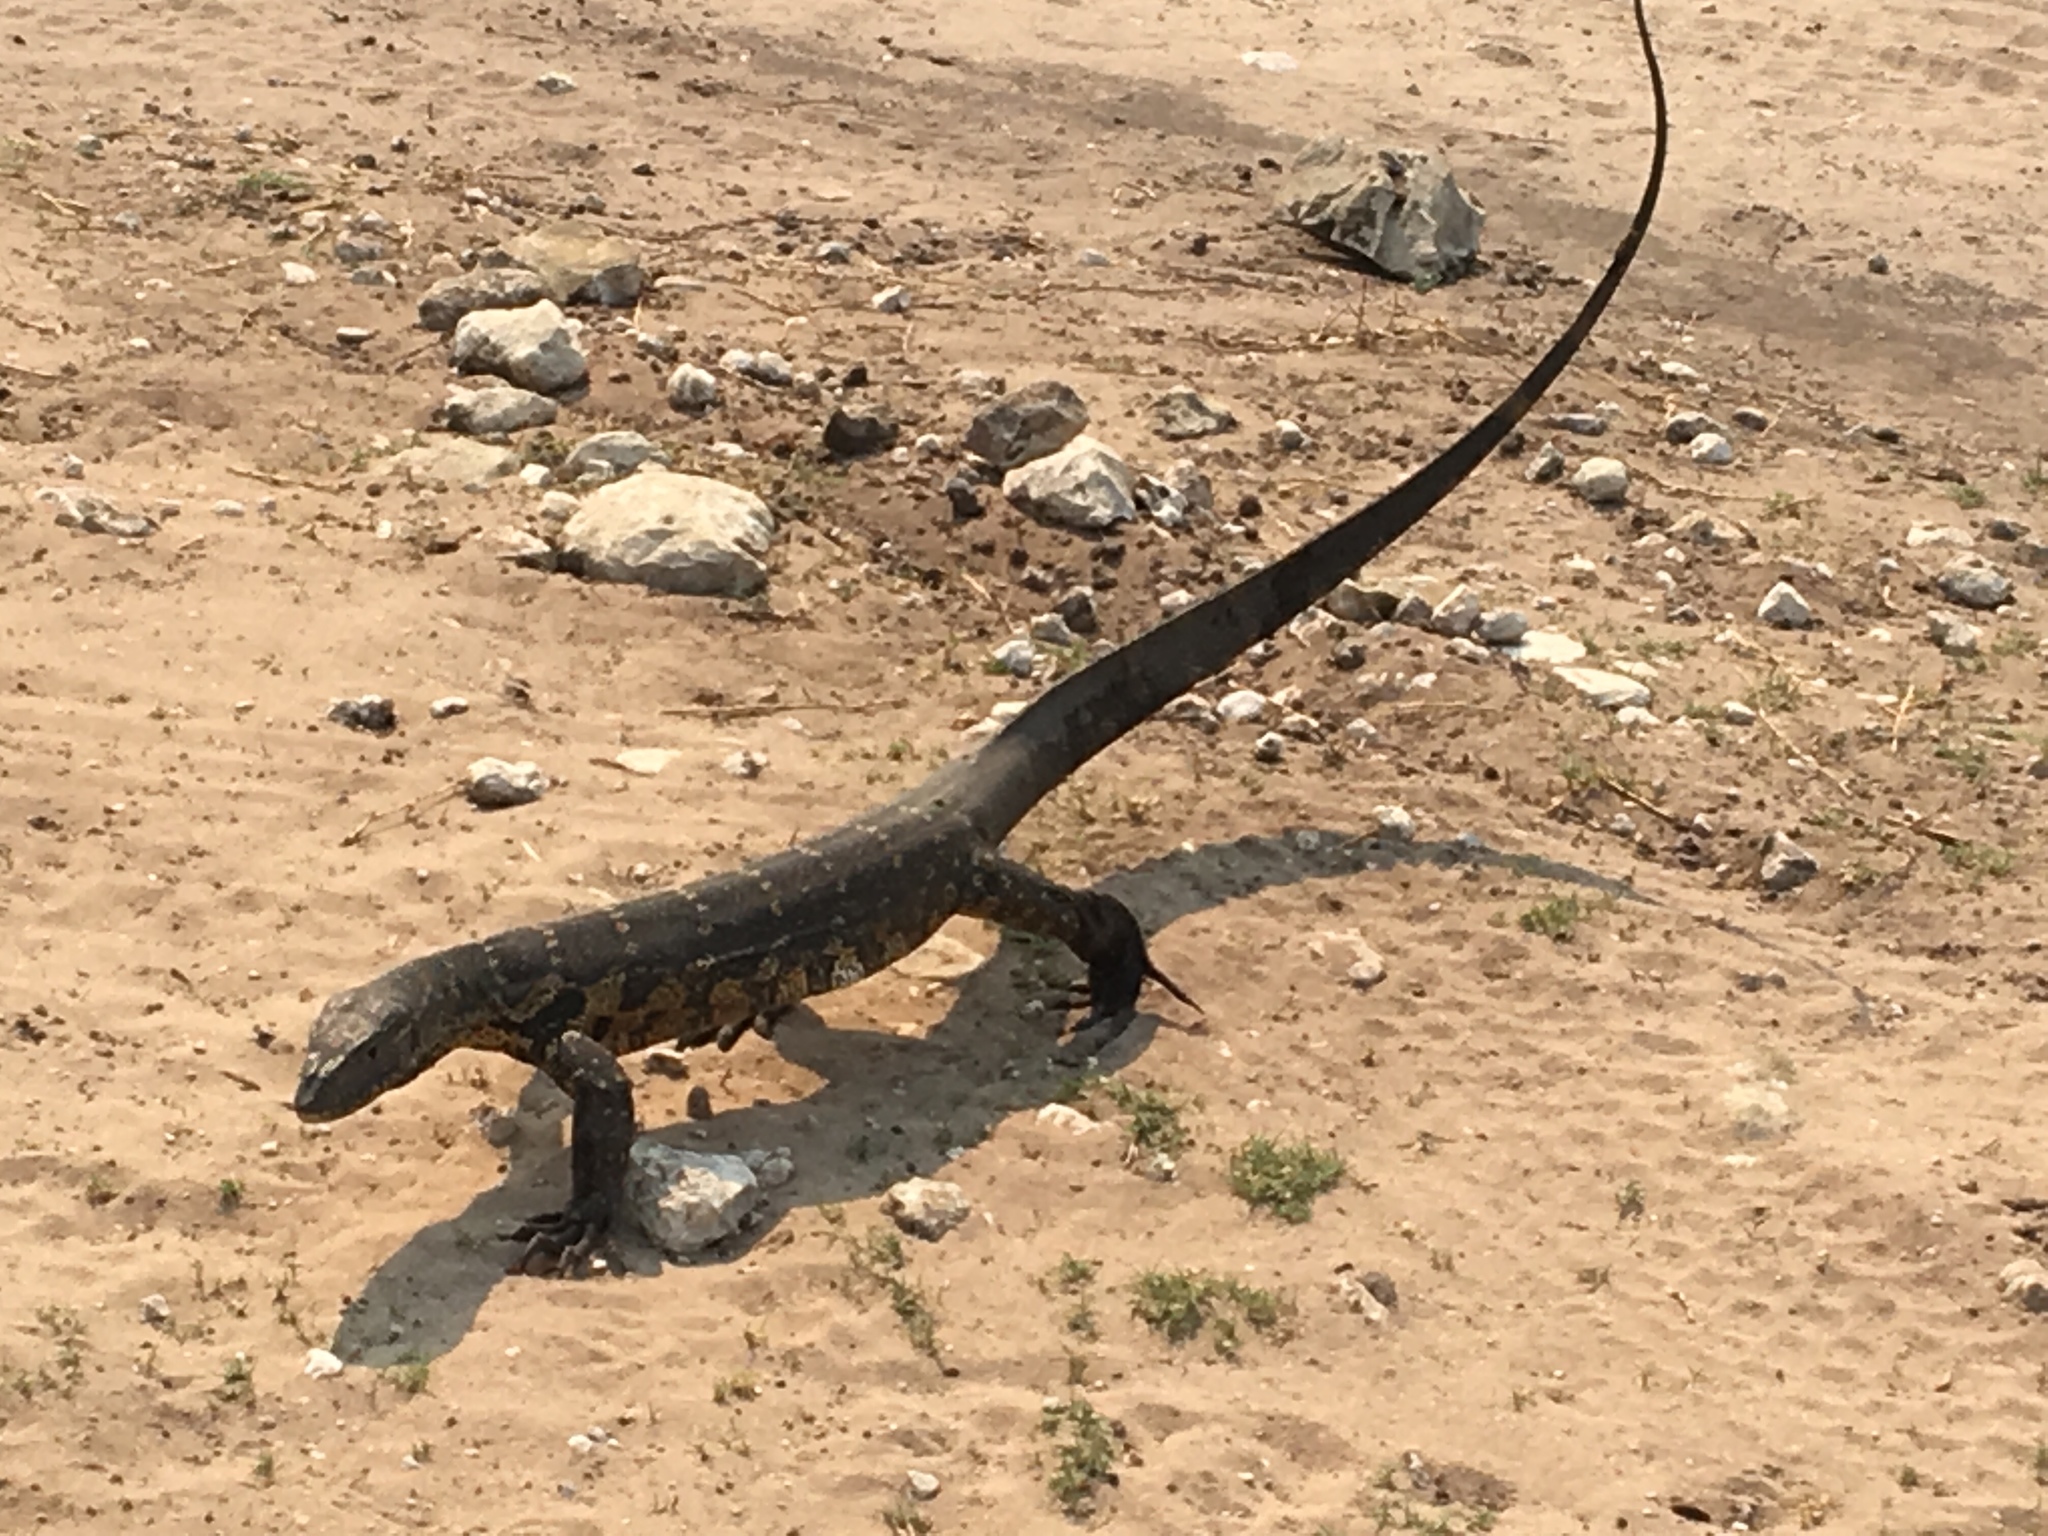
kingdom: Animalia
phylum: Chordata
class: Squamata
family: Varanidae
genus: Varanus
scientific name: Varanus niloticus
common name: Nile monitor
